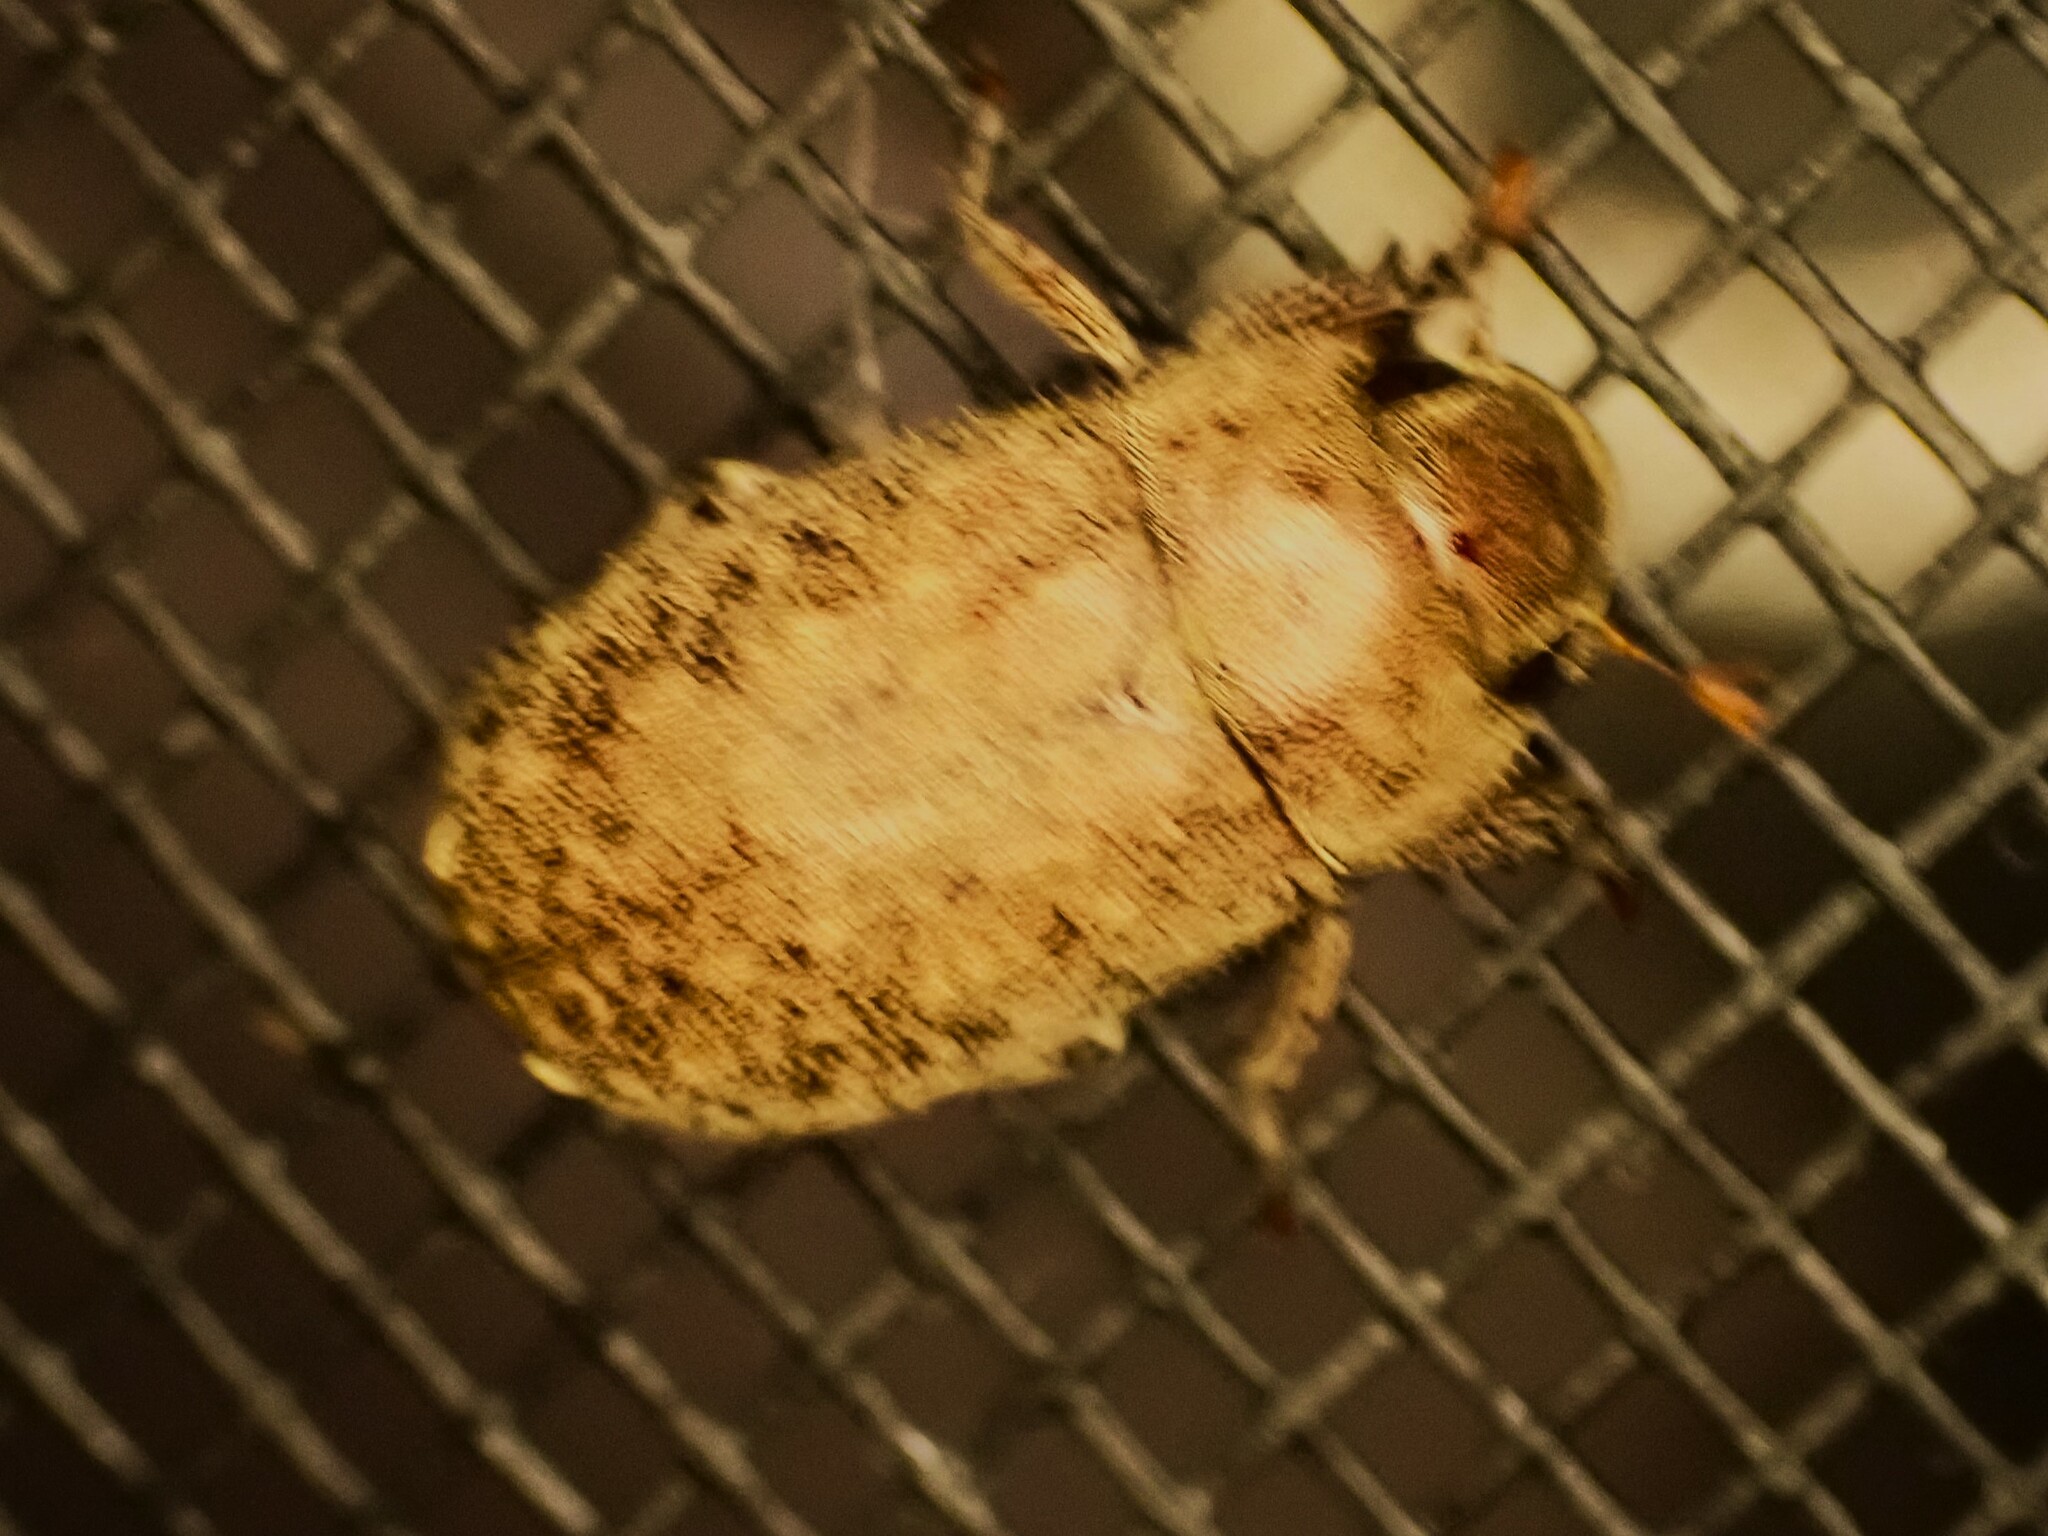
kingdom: Animalia
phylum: Arthropoda
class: Insecta
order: Coleoptera
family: Scarabaeidae
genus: Adoretus
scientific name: Adoretus sinicus
